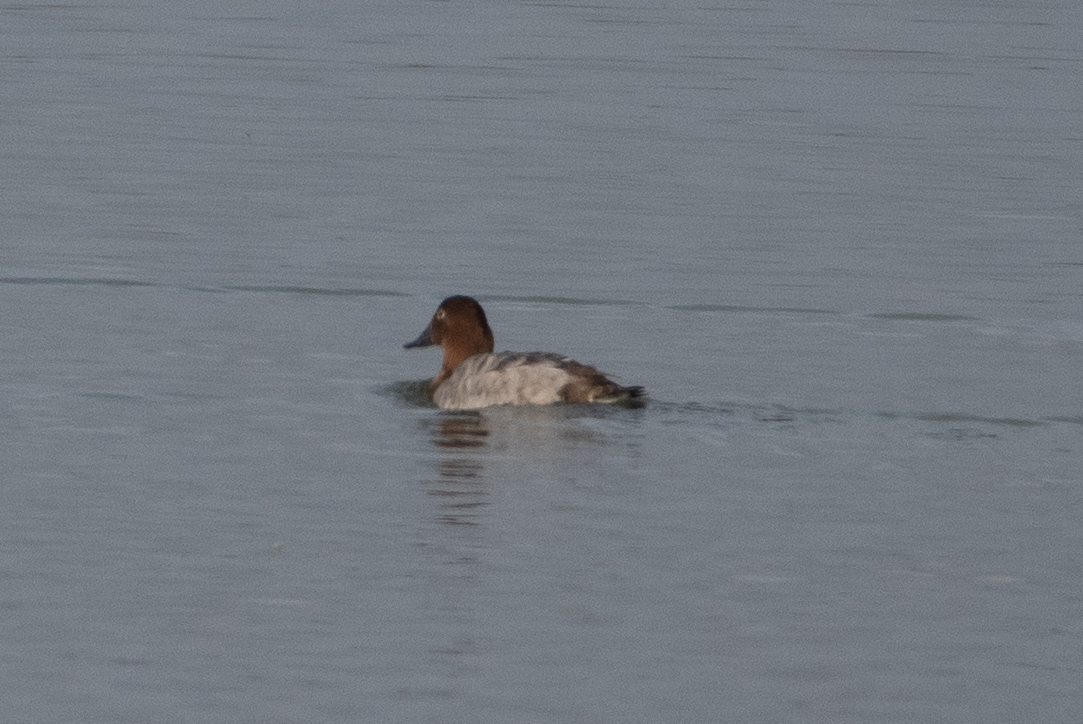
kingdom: Animalia
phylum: Chordata
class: Aves
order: Anseriformes
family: Anatidae
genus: Aythya
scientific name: Aythya valisineria
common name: Canvasback
